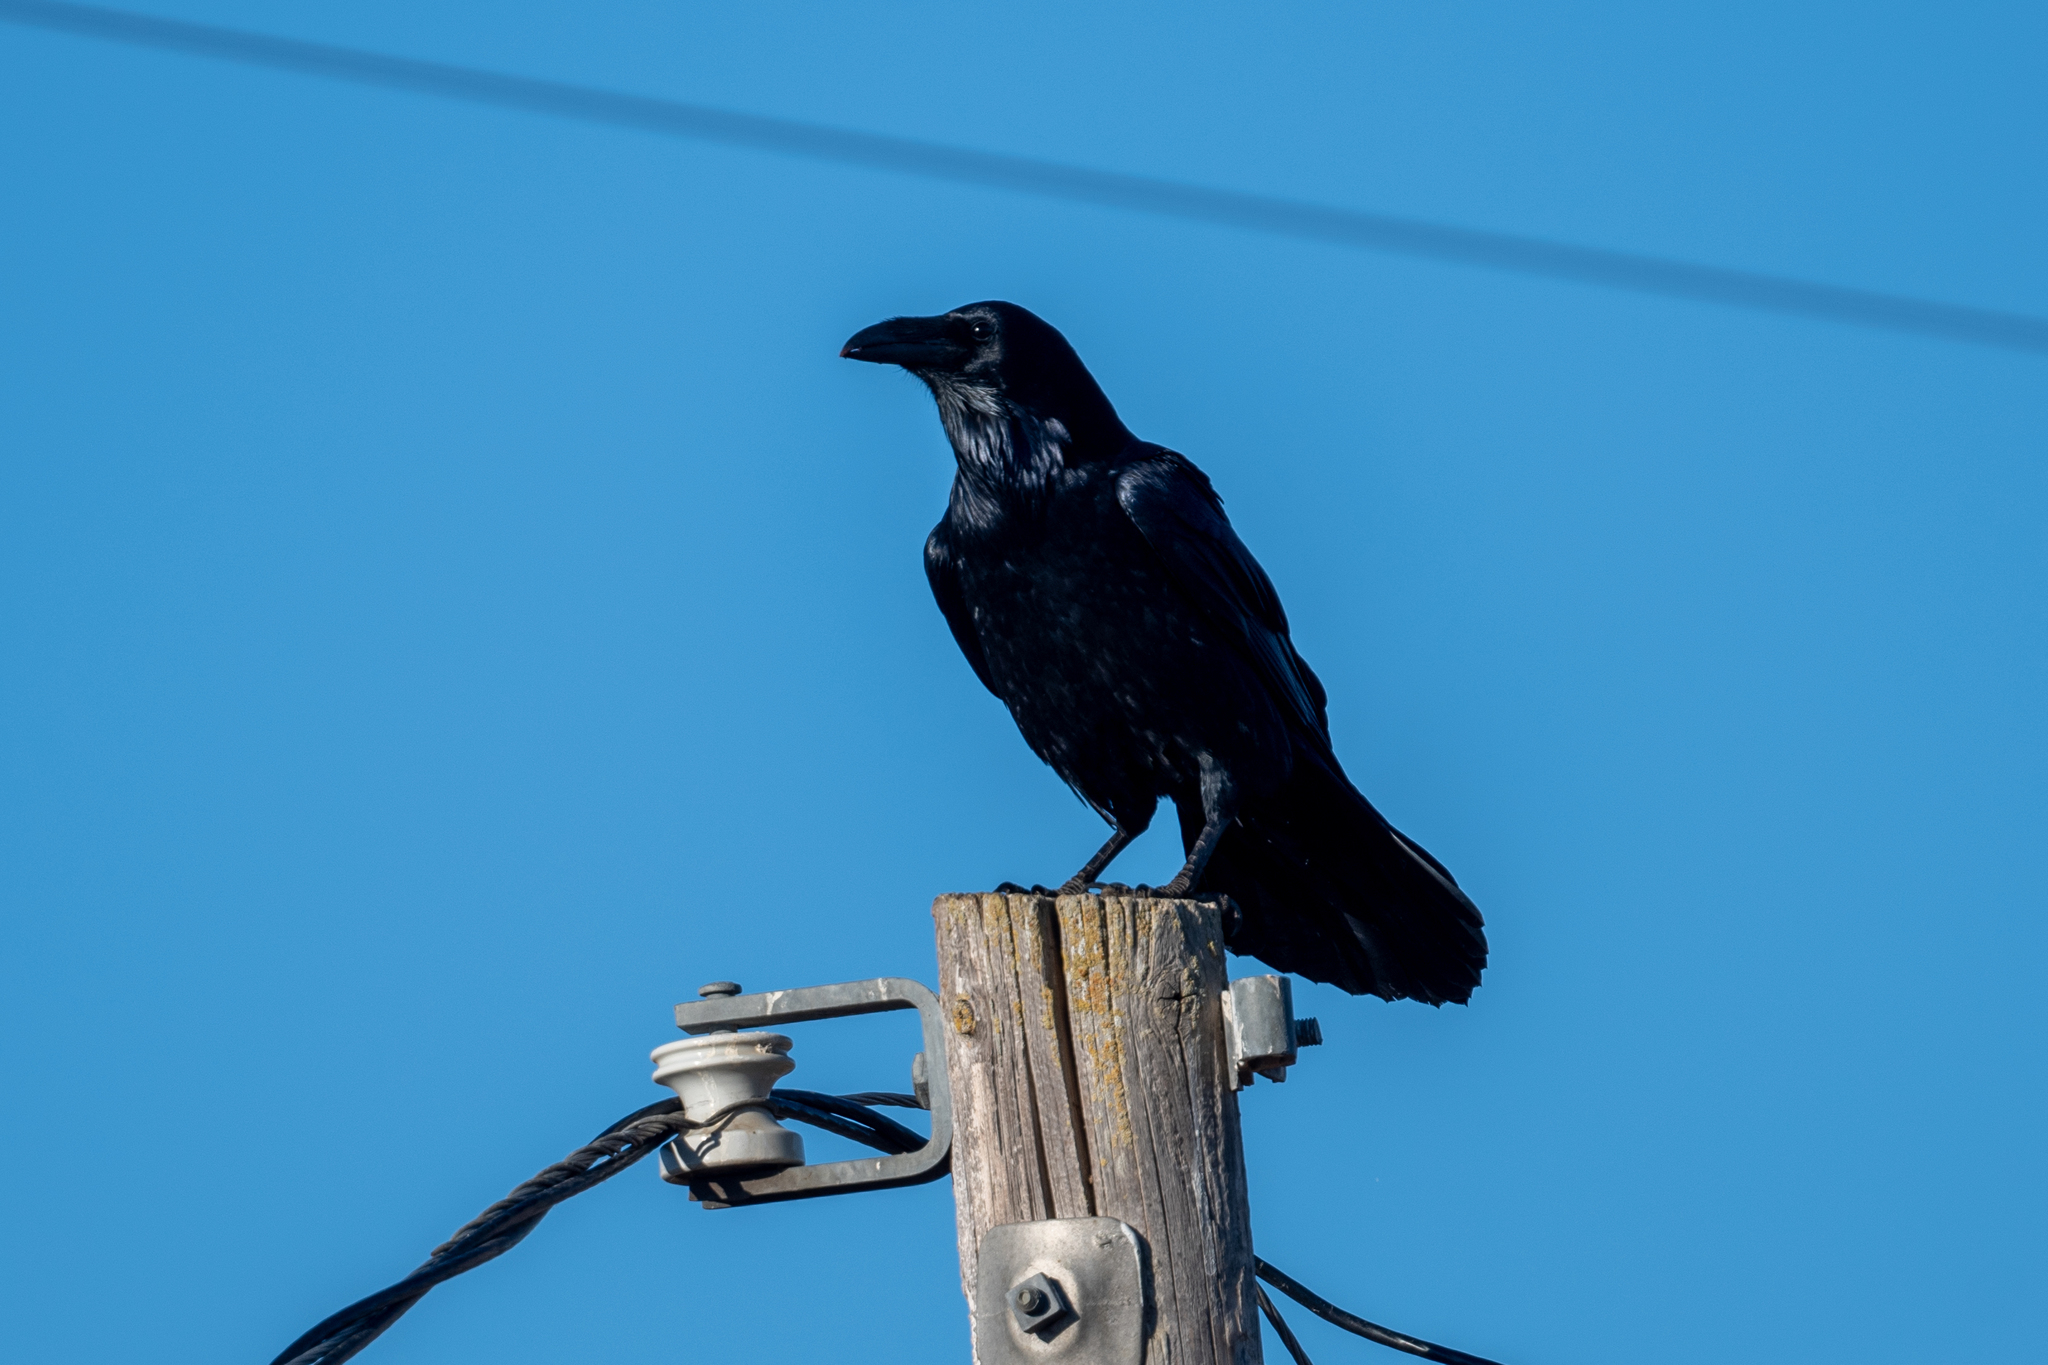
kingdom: Animalia
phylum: Chordata
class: Aves
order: Passeriformes
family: Corvidae
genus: Corvus
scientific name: Corvus corax
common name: Common raven
